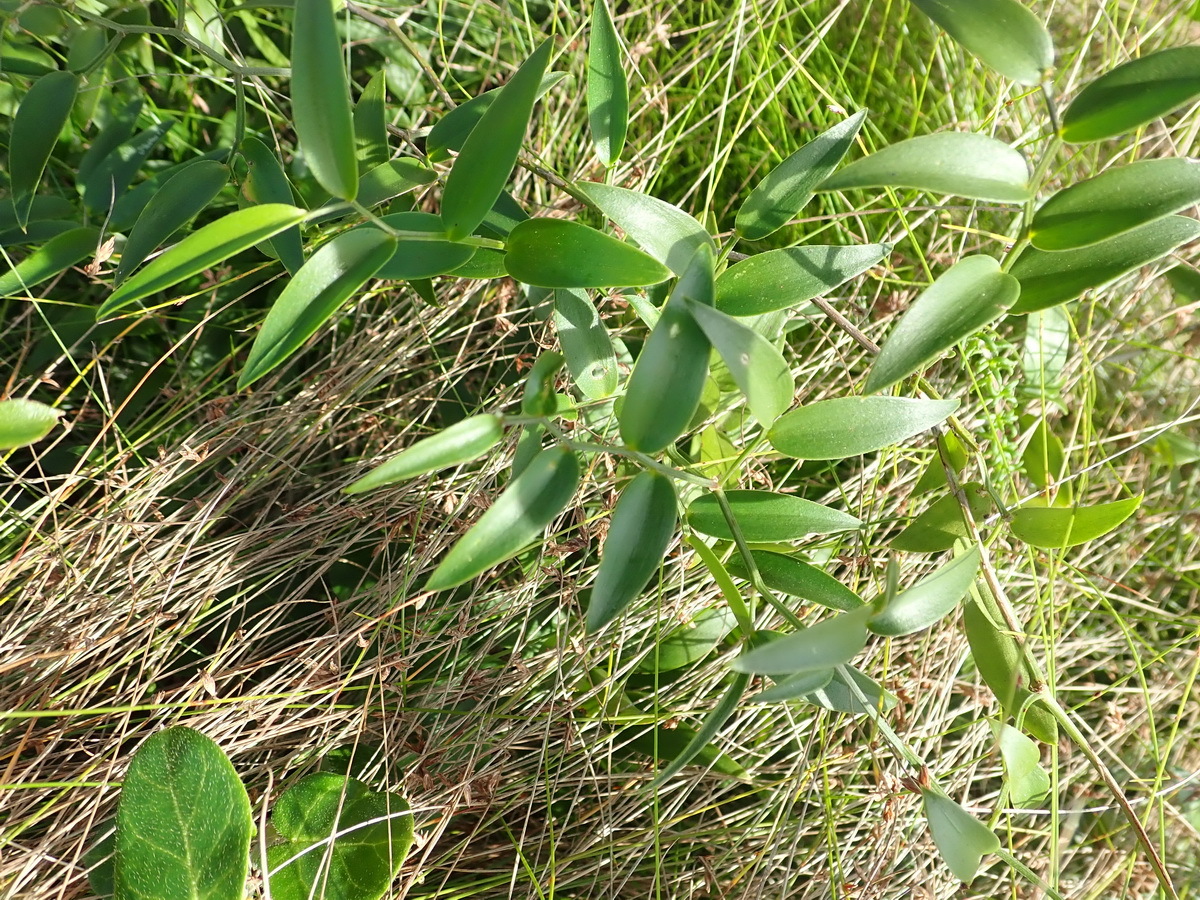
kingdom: Plantae
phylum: Tracheophyta
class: Liliopsida
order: Asparagales
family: Asparagaceae
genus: Asparagus
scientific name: Asparagus asparagoides
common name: African asparagus fern
